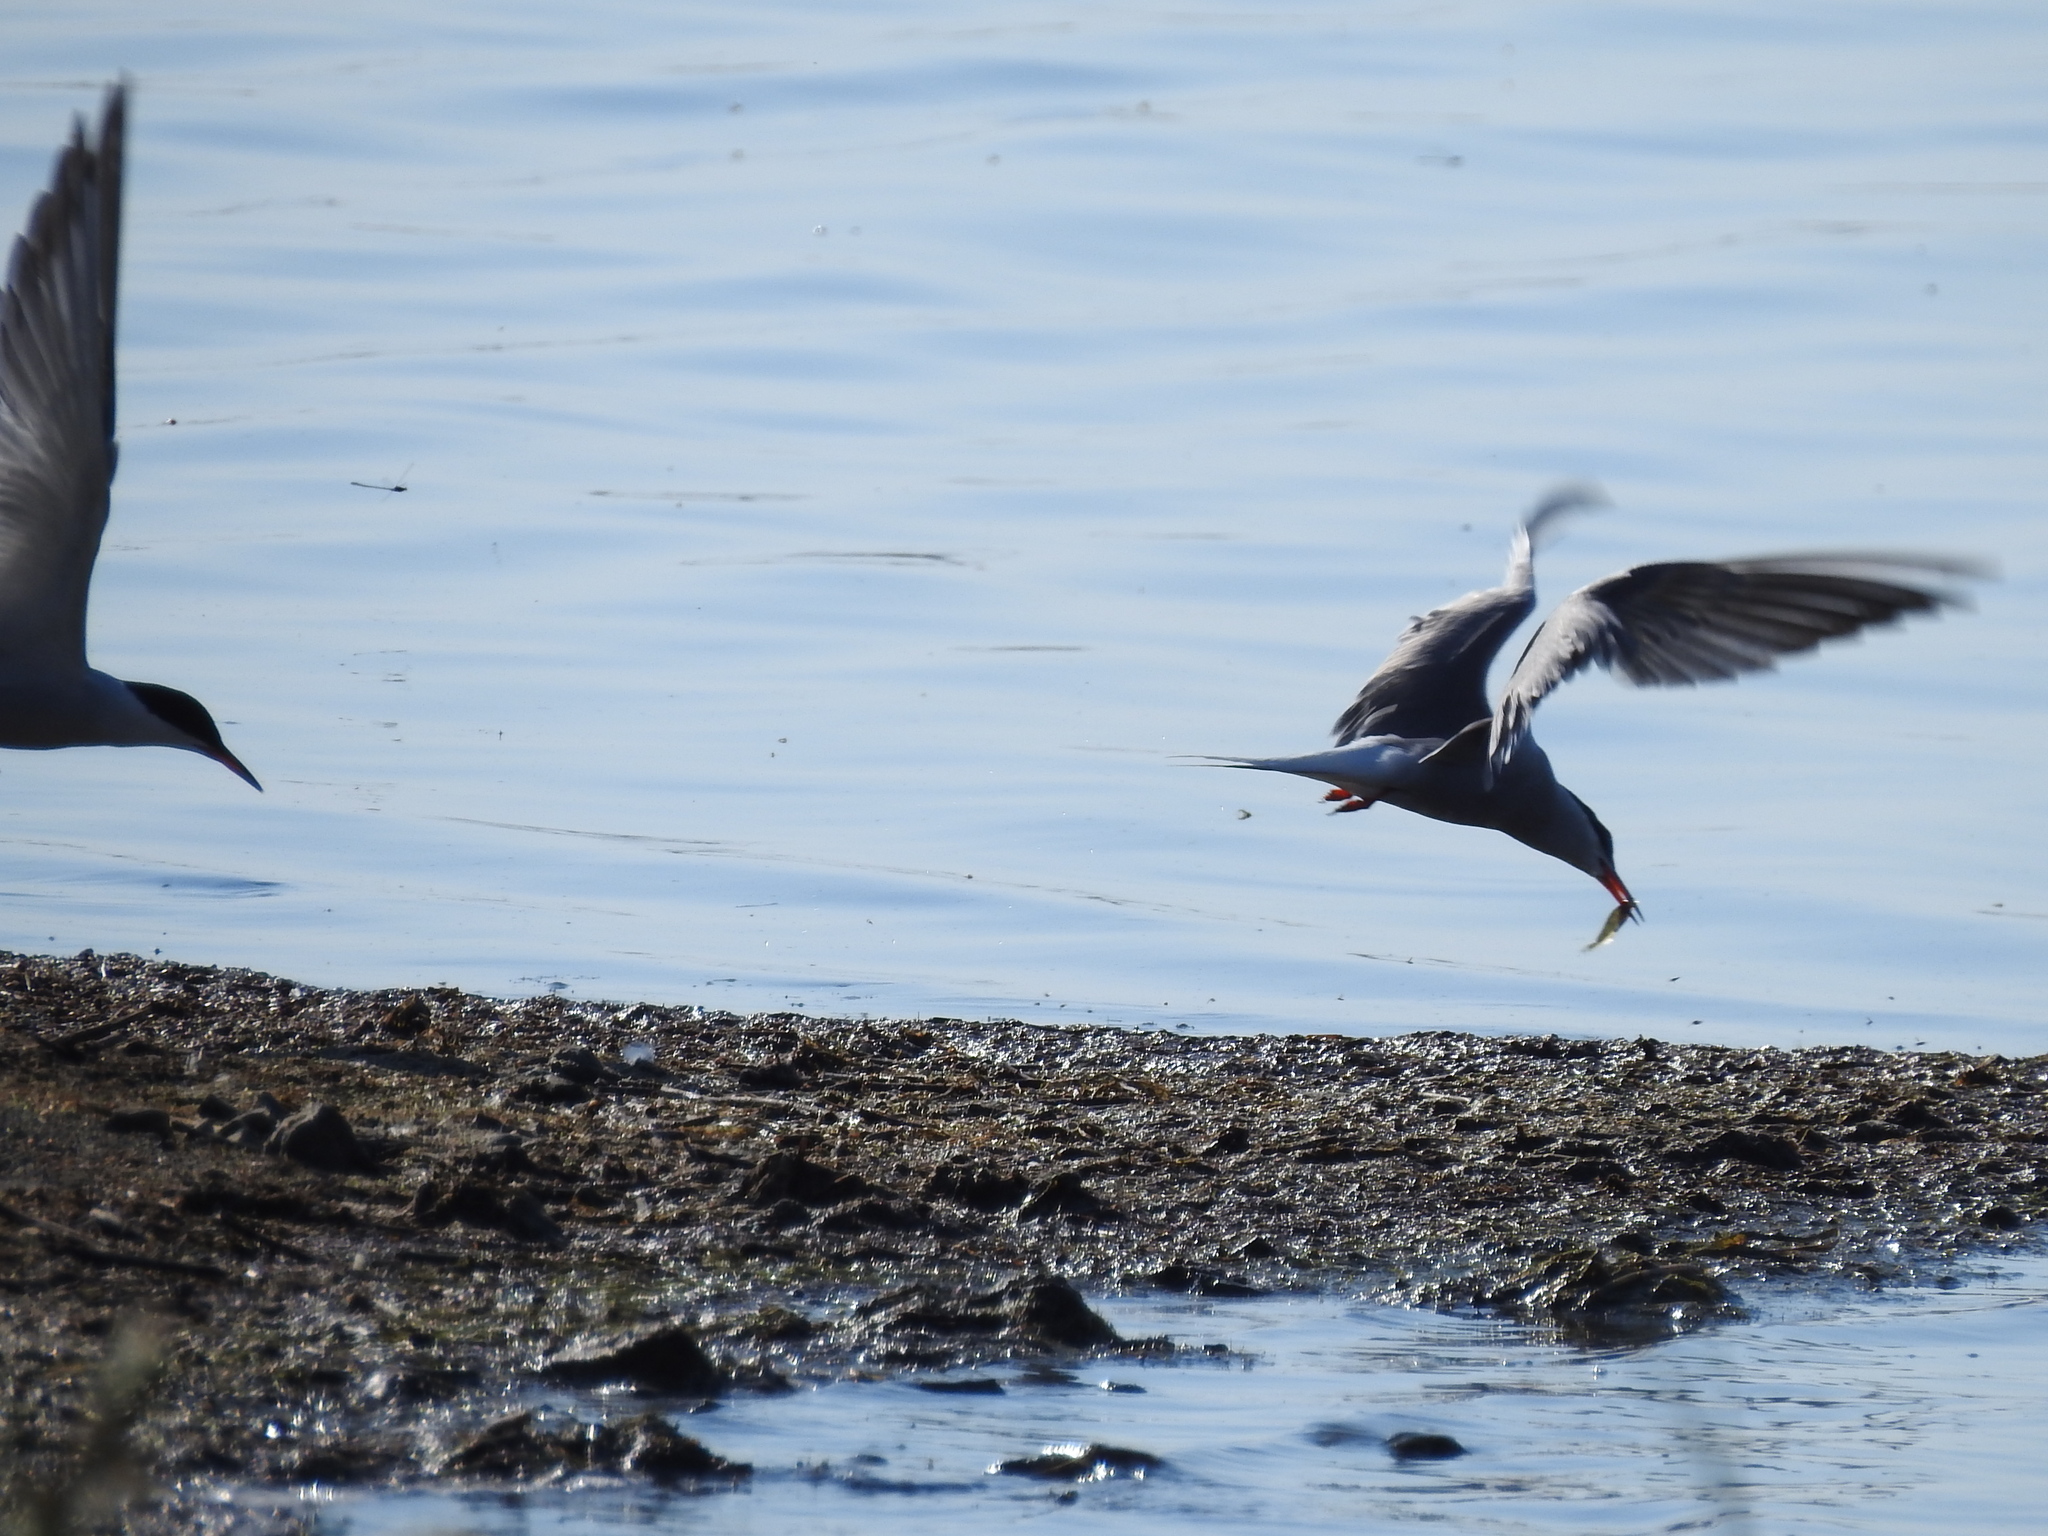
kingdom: Animalia
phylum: Chordata
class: Aves
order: Charadriiformes
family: Laridae
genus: Sterna
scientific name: Sterna hirundo
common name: Common tern
